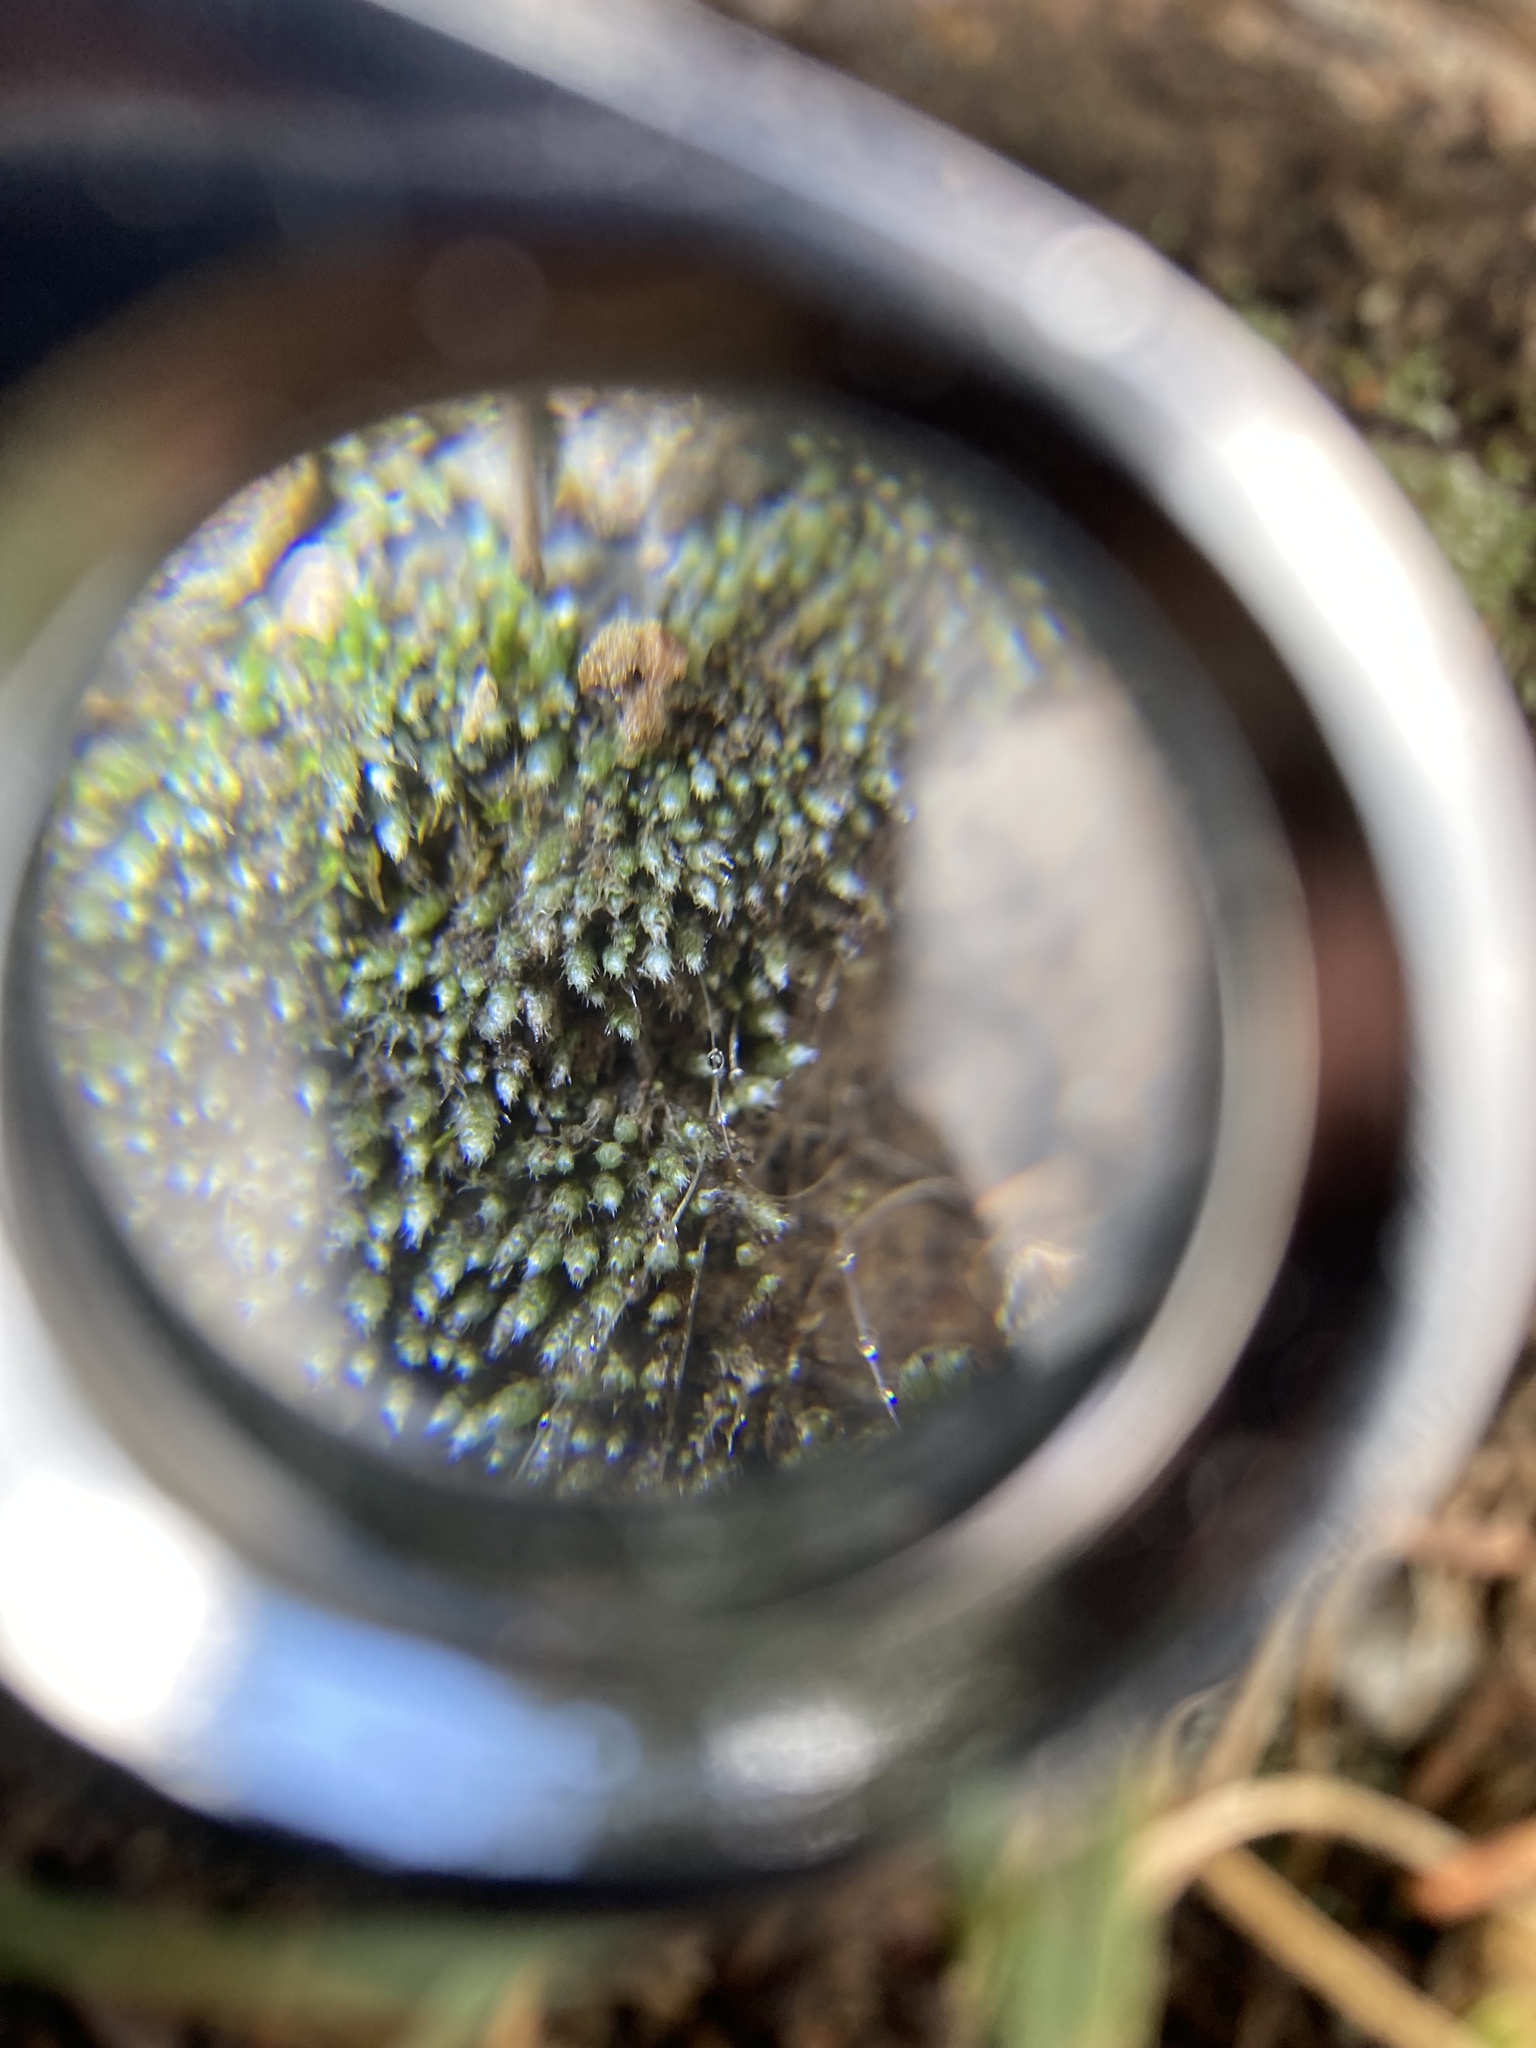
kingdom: Plantae
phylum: Bryophyta
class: Bryopsida
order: Bryales
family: Bryaceae
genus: Bryum
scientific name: Bryum argenteum
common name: Silver-moss
